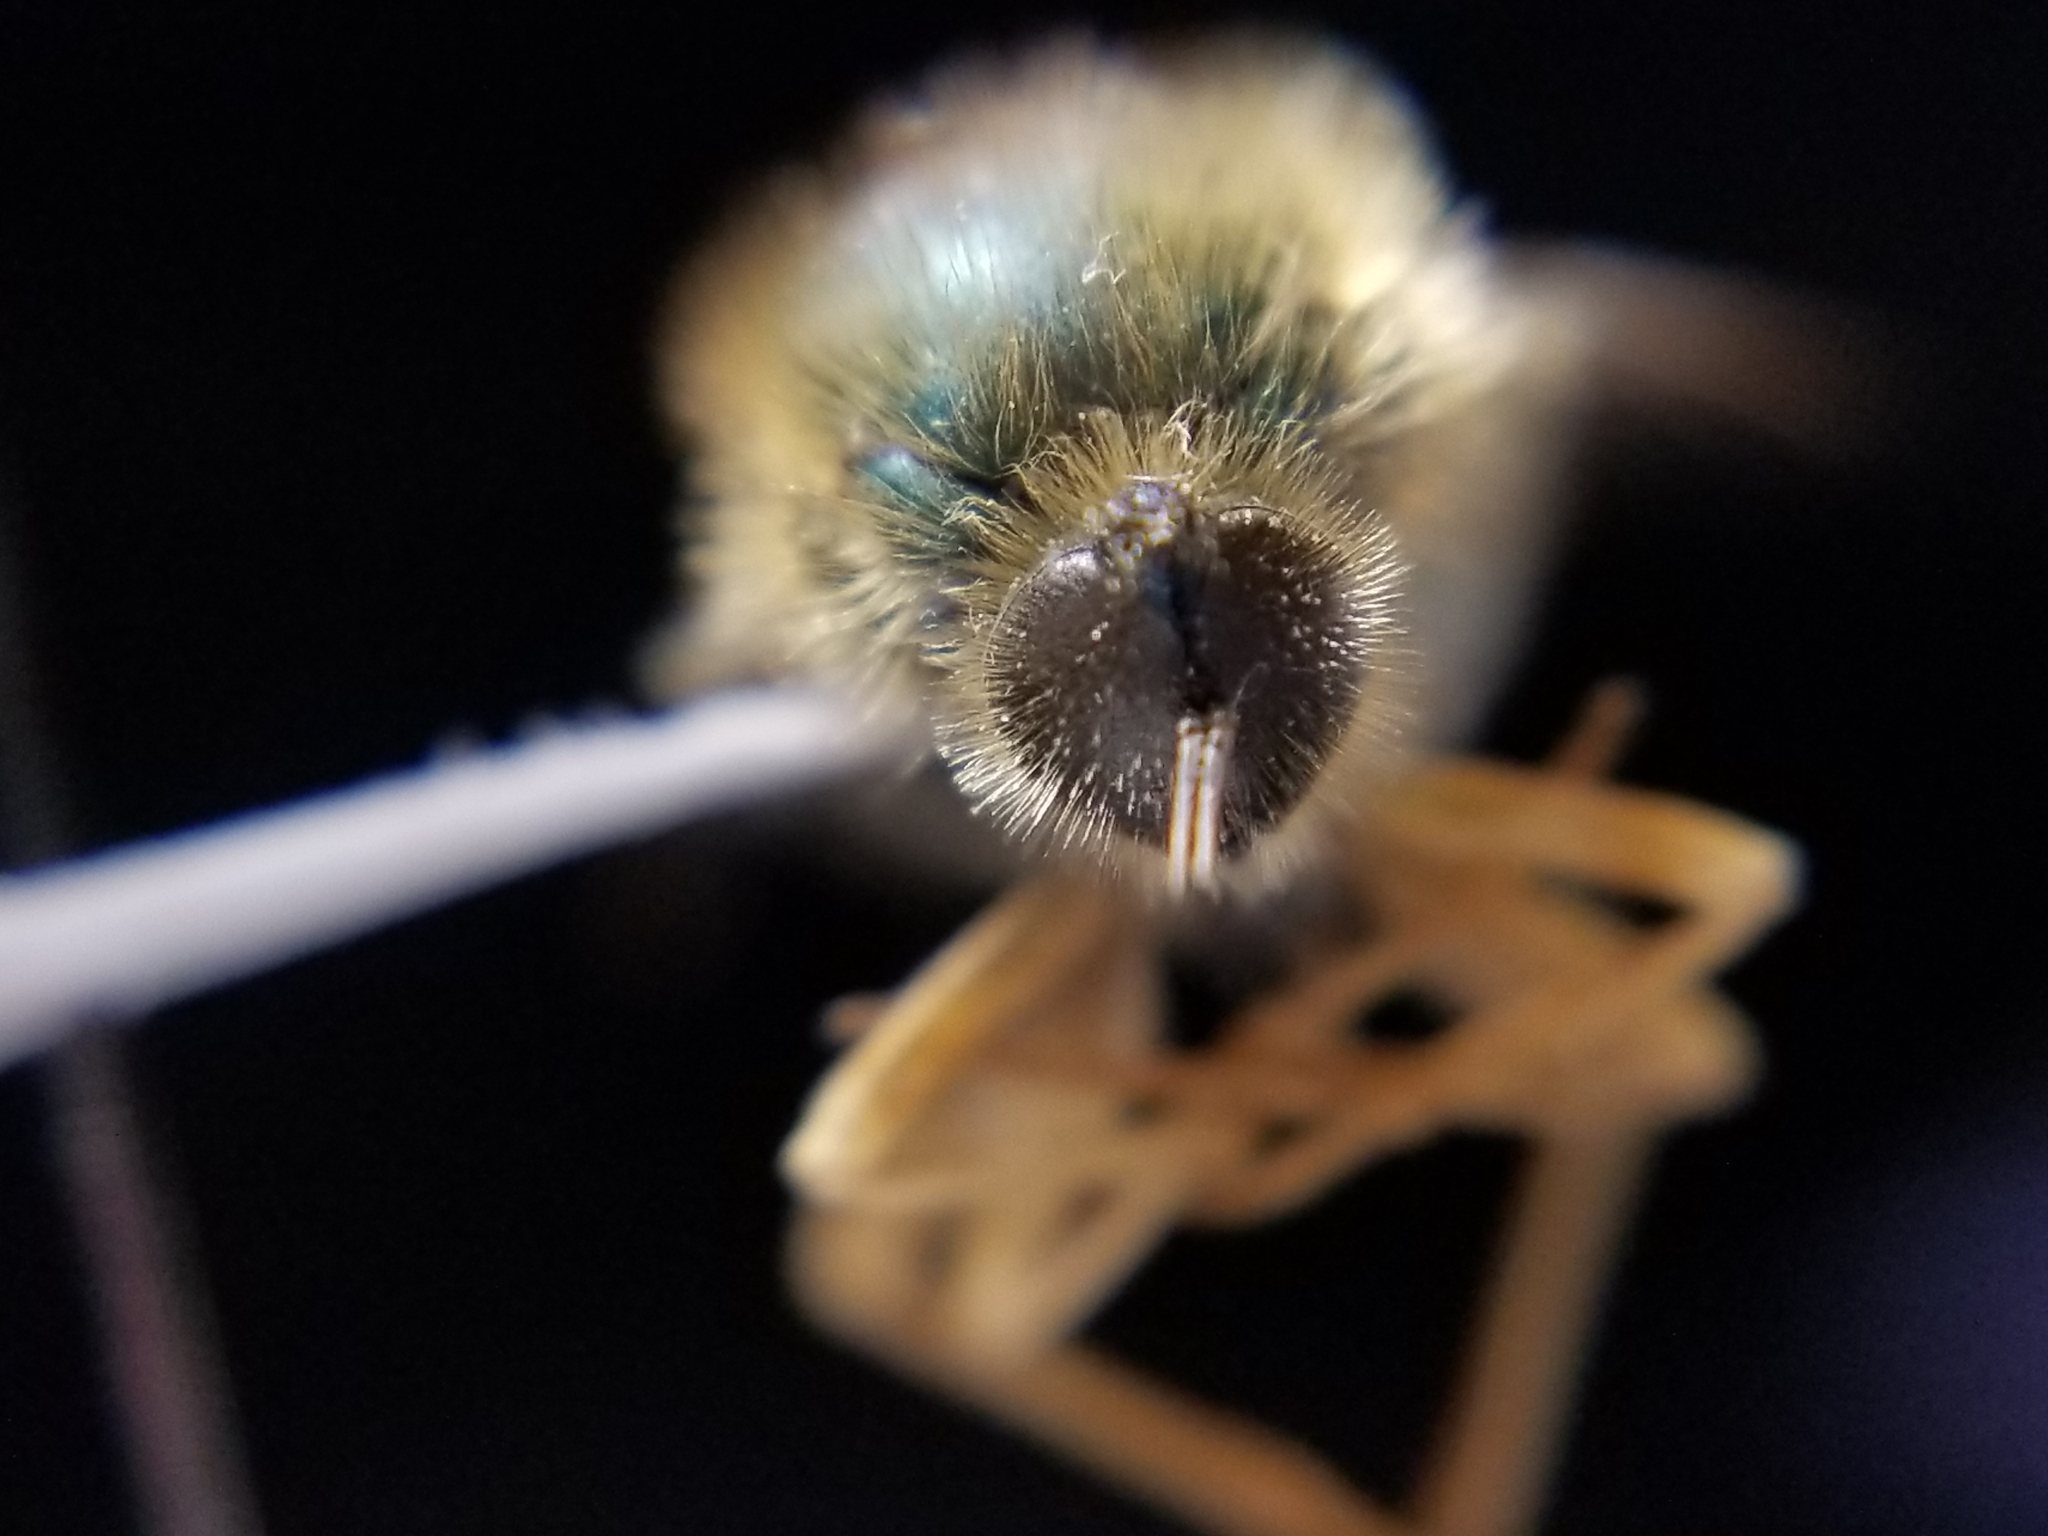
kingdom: Animalia
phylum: Arthropoda
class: Insecta
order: Diptera
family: Acroceridae
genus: Eulonchus
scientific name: Eulonchus sapphirinus
